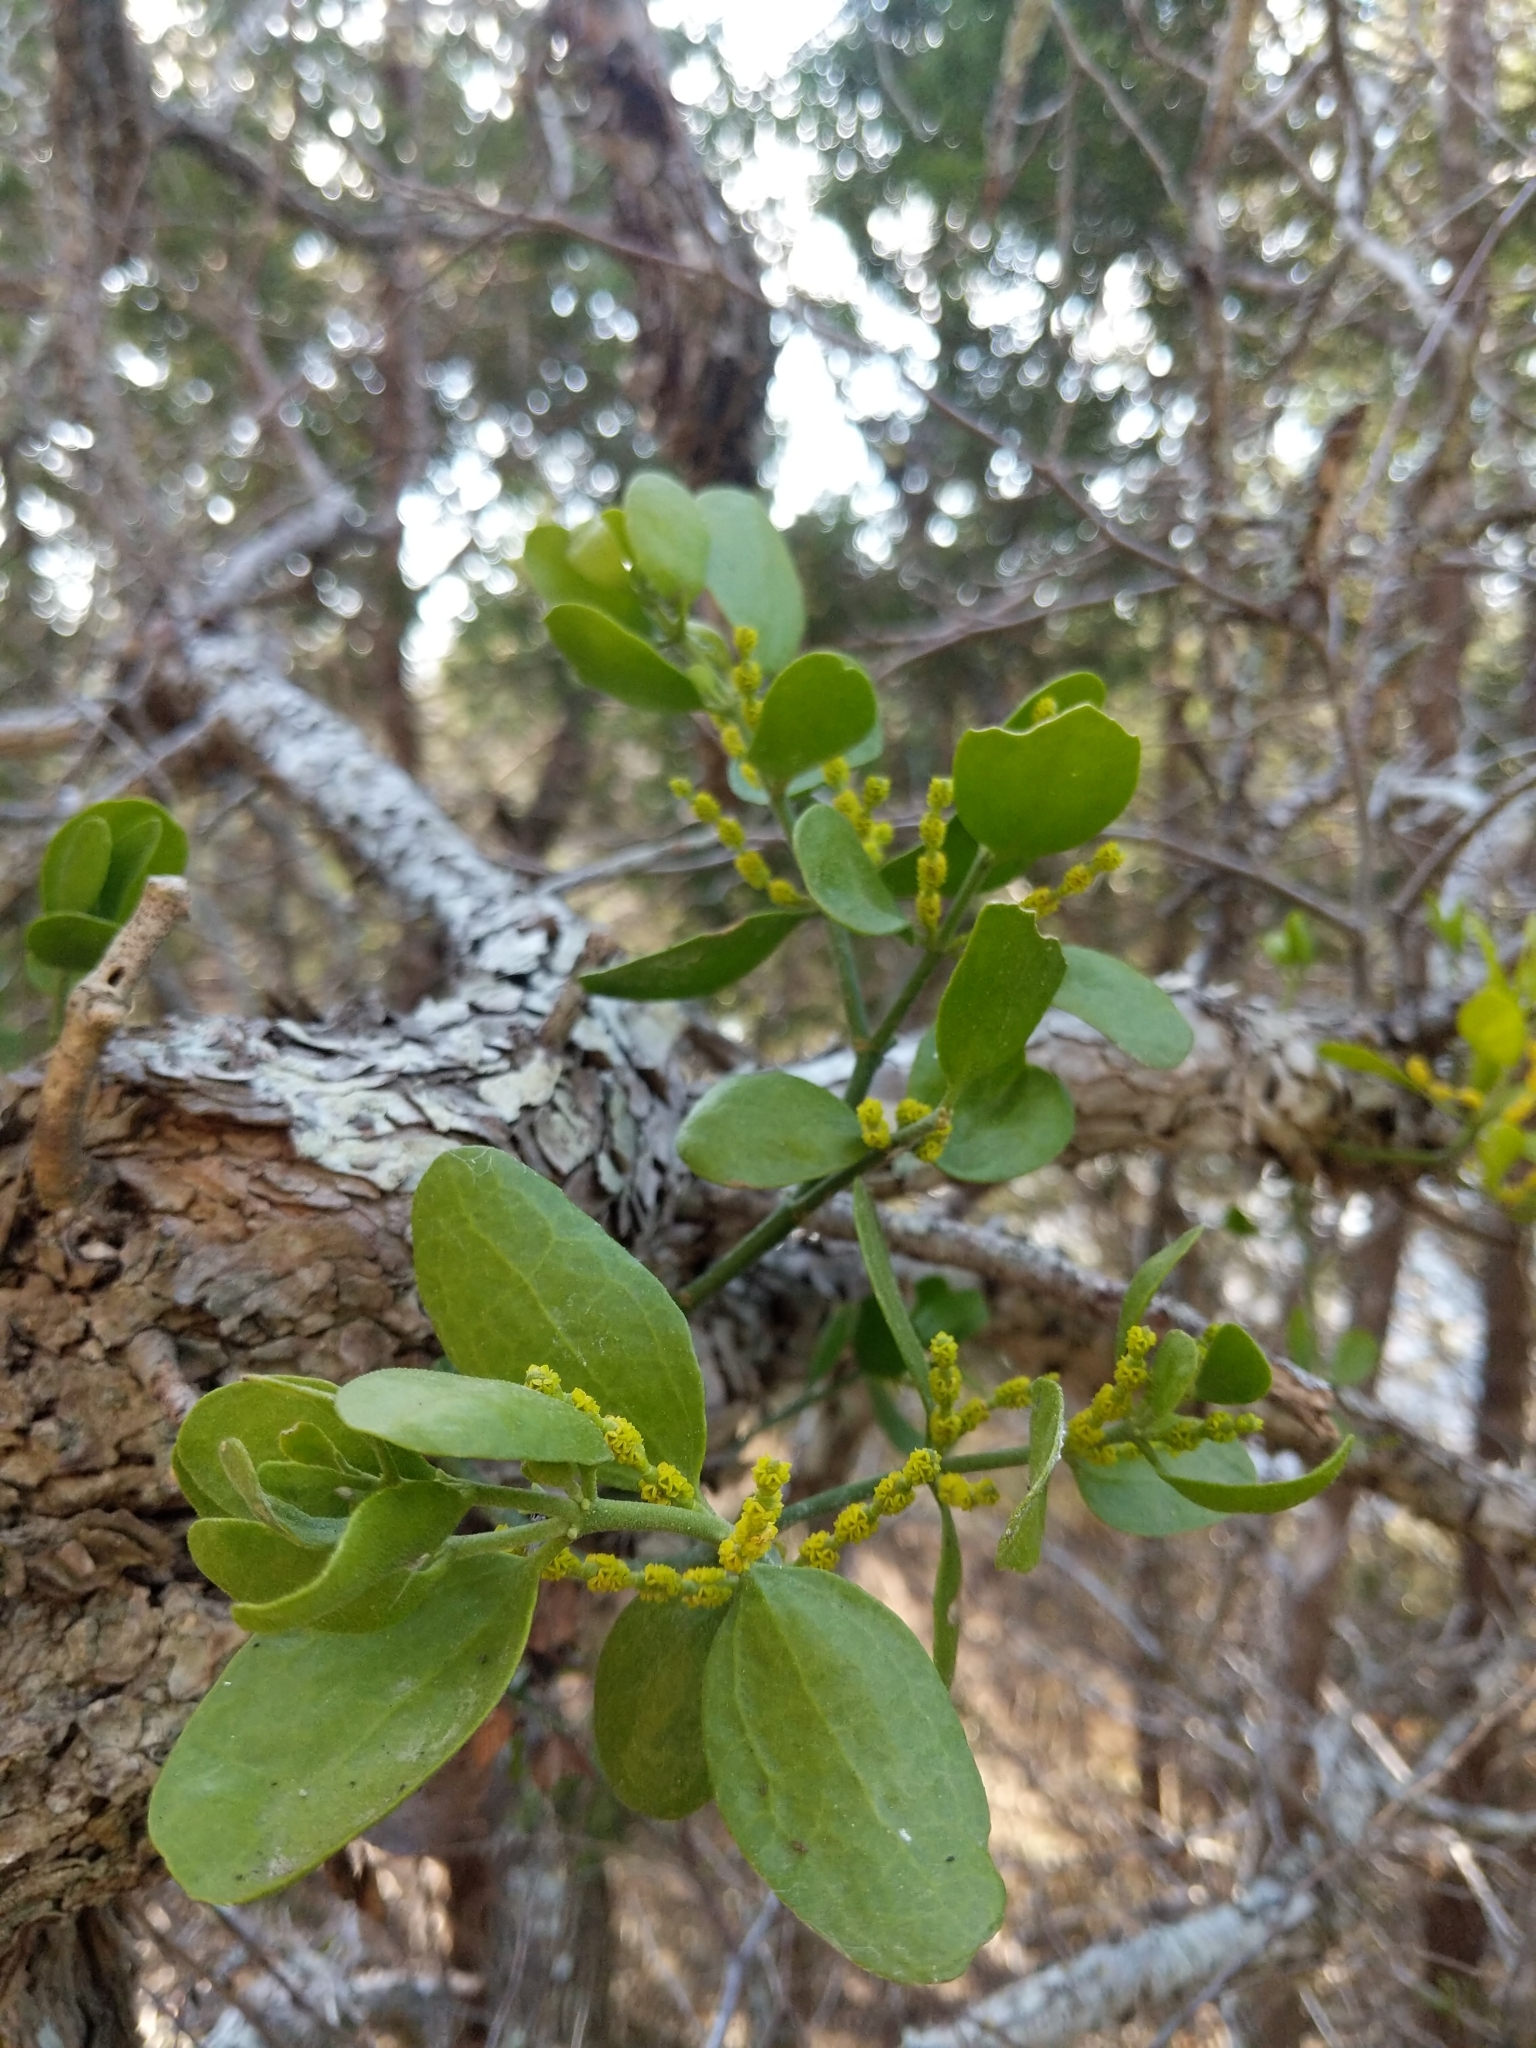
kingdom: Plantae
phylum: Tracheophyta
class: Magnoliopsida
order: Santalales
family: Viscaceae
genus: Phoradendron
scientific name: Phoradendron leucarpum
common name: Pacific mistletoe
